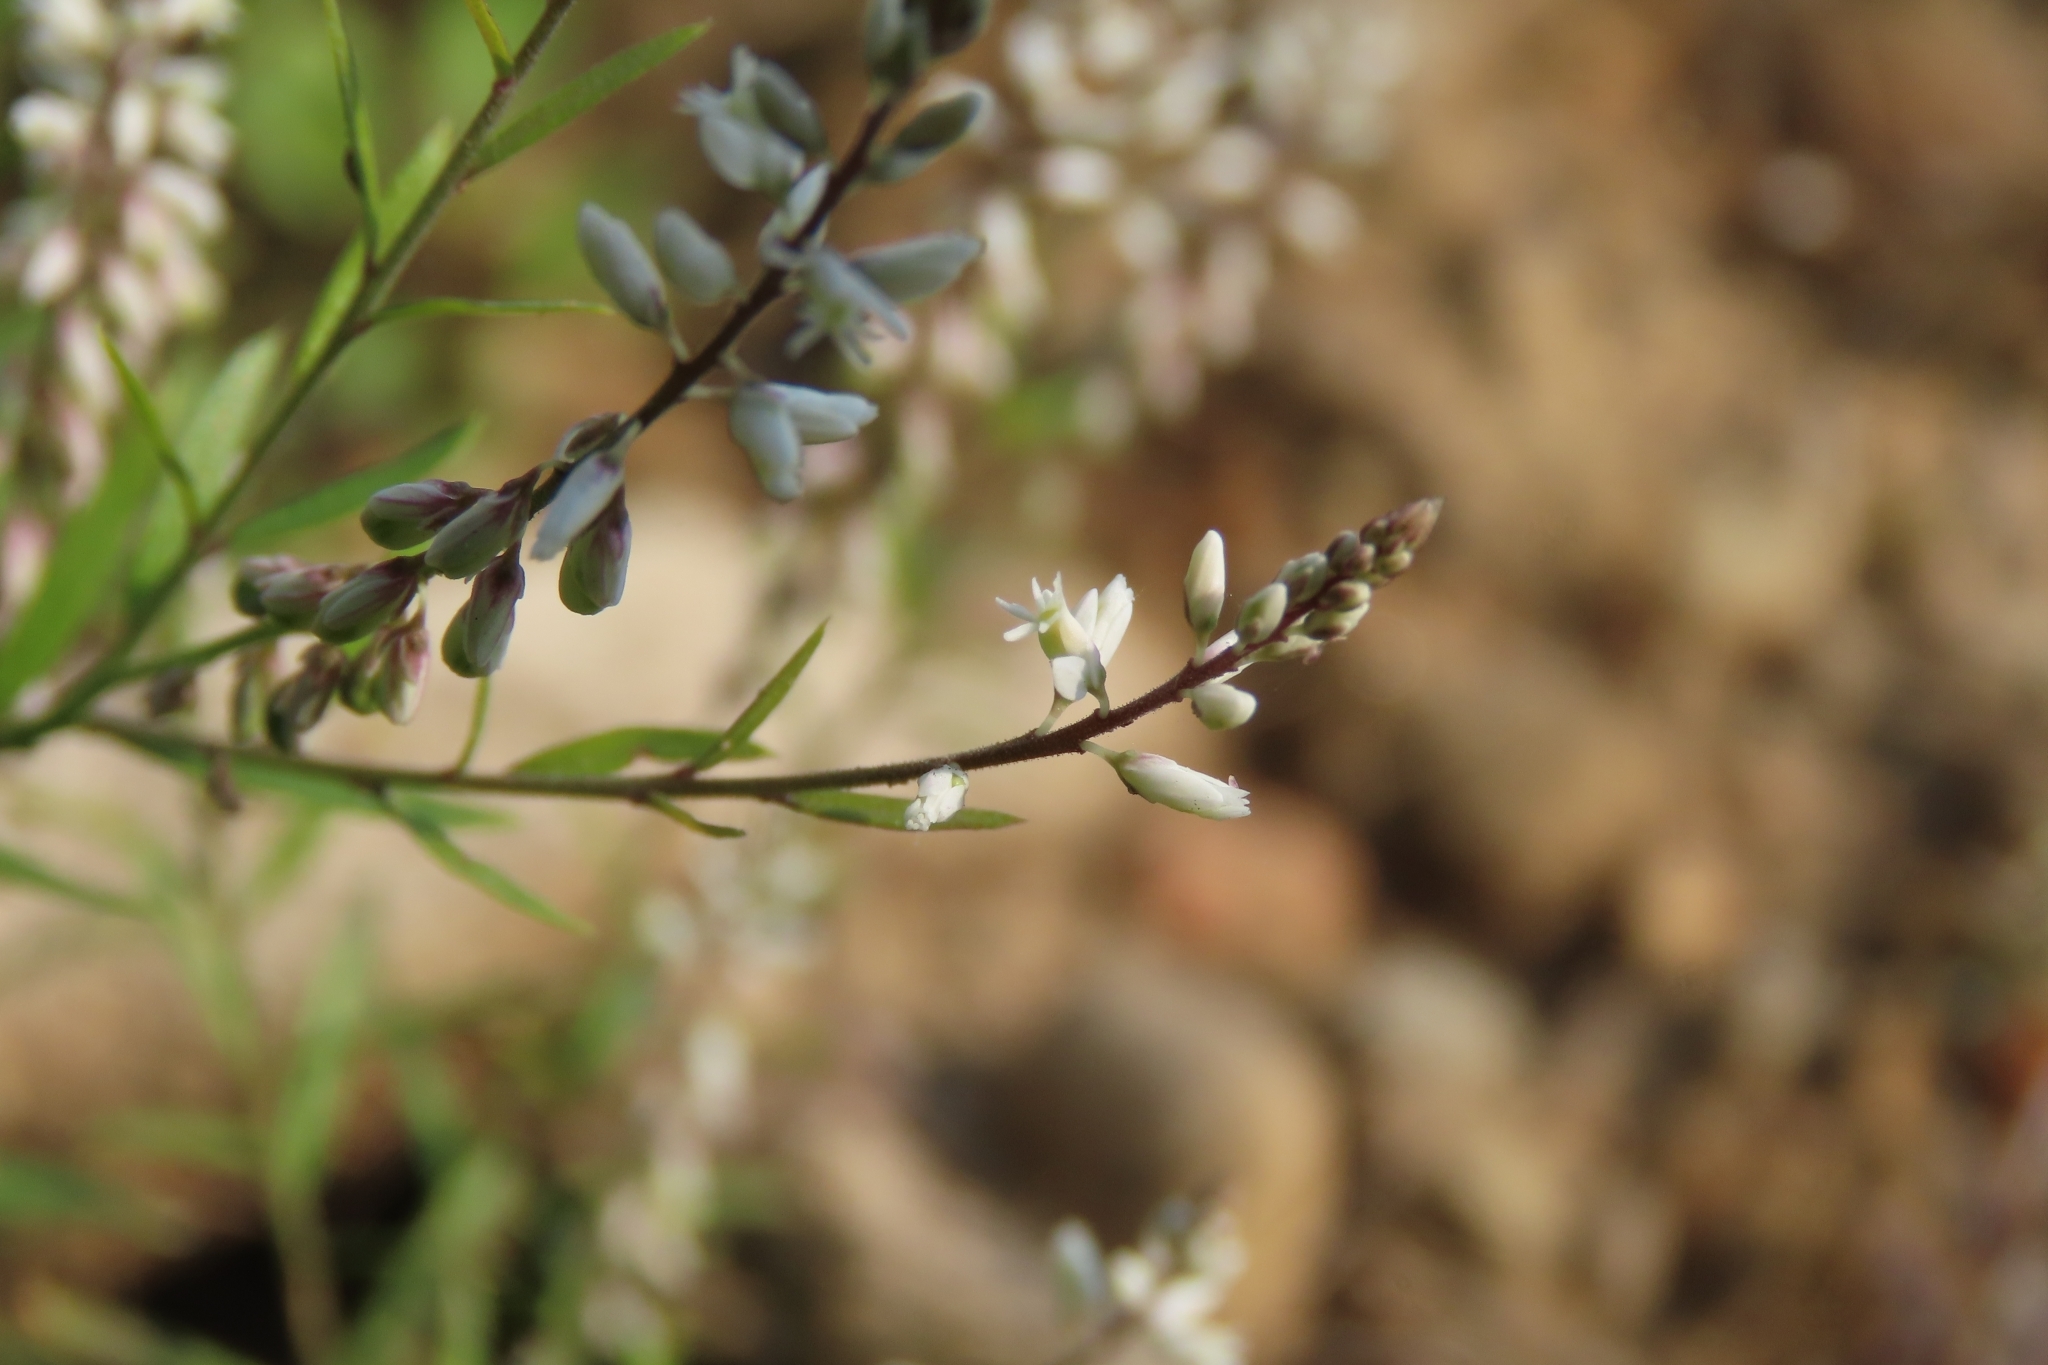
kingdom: Plantae
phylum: Tracheophyta
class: Magnoliopsida
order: Fabales
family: Polygalaceae
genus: Polygala
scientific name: Polygala paniculata
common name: Orosne
